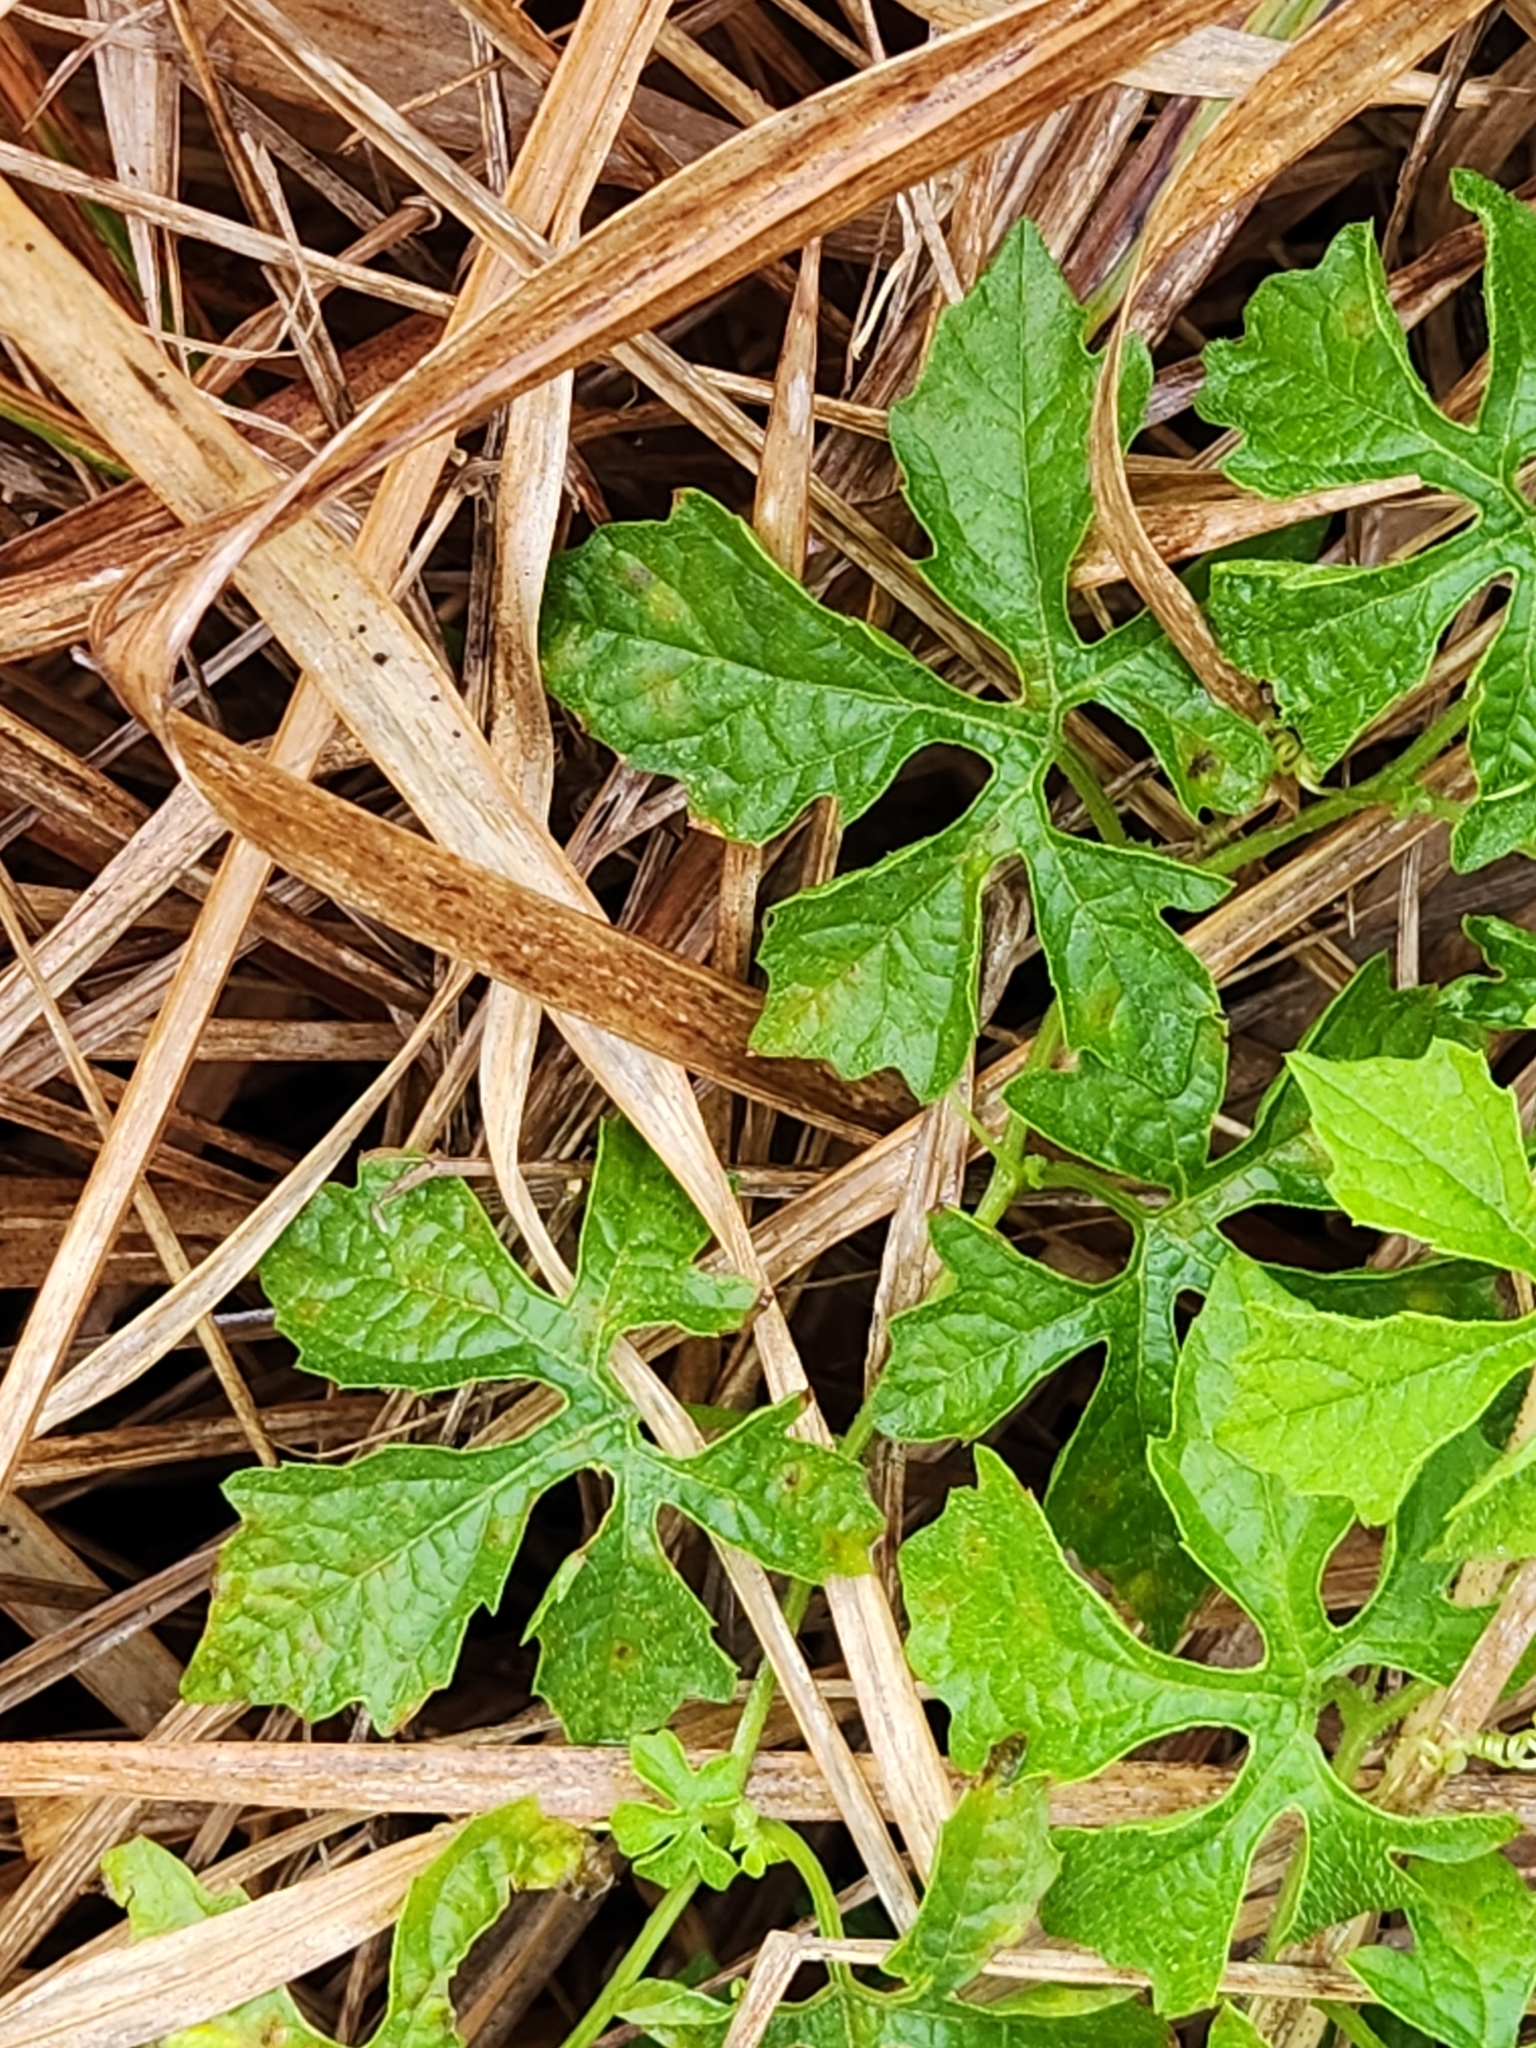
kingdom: Plantae
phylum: Tracheophyta
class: Magnoliopsida
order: Cucurbitales
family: Cucurbitaceae
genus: Momordica
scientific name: Momordica charantia
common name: Balsampear
